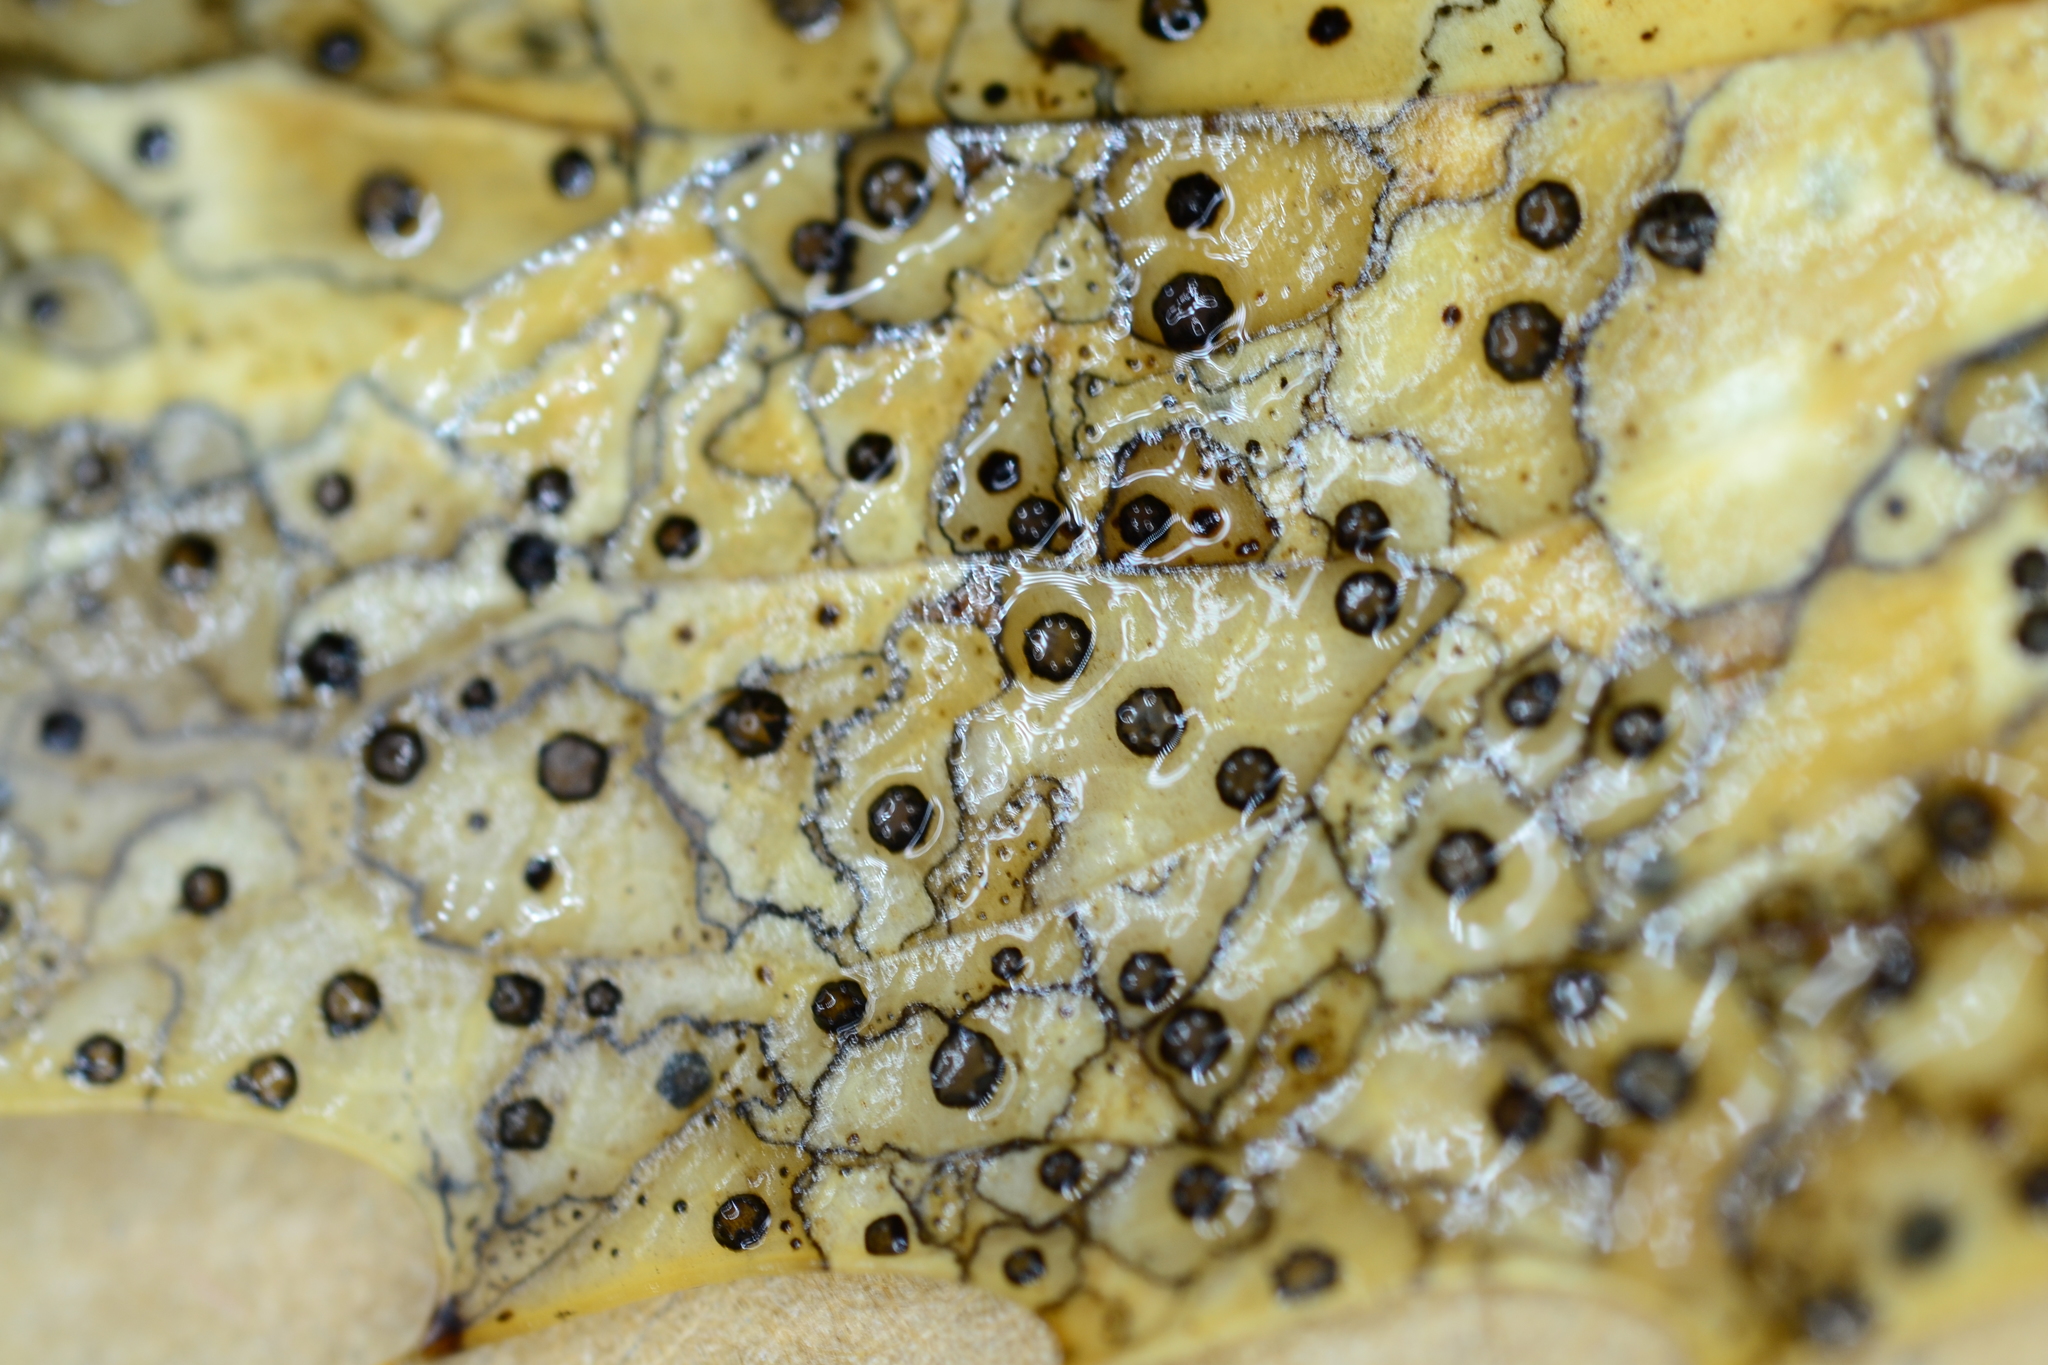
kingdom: Fungi
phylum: Ascomycota
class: Leotiomycetes
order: Rhytismatales
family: Rhytismataceae
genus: Coccomyces
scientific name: Coccomyces dentatus
